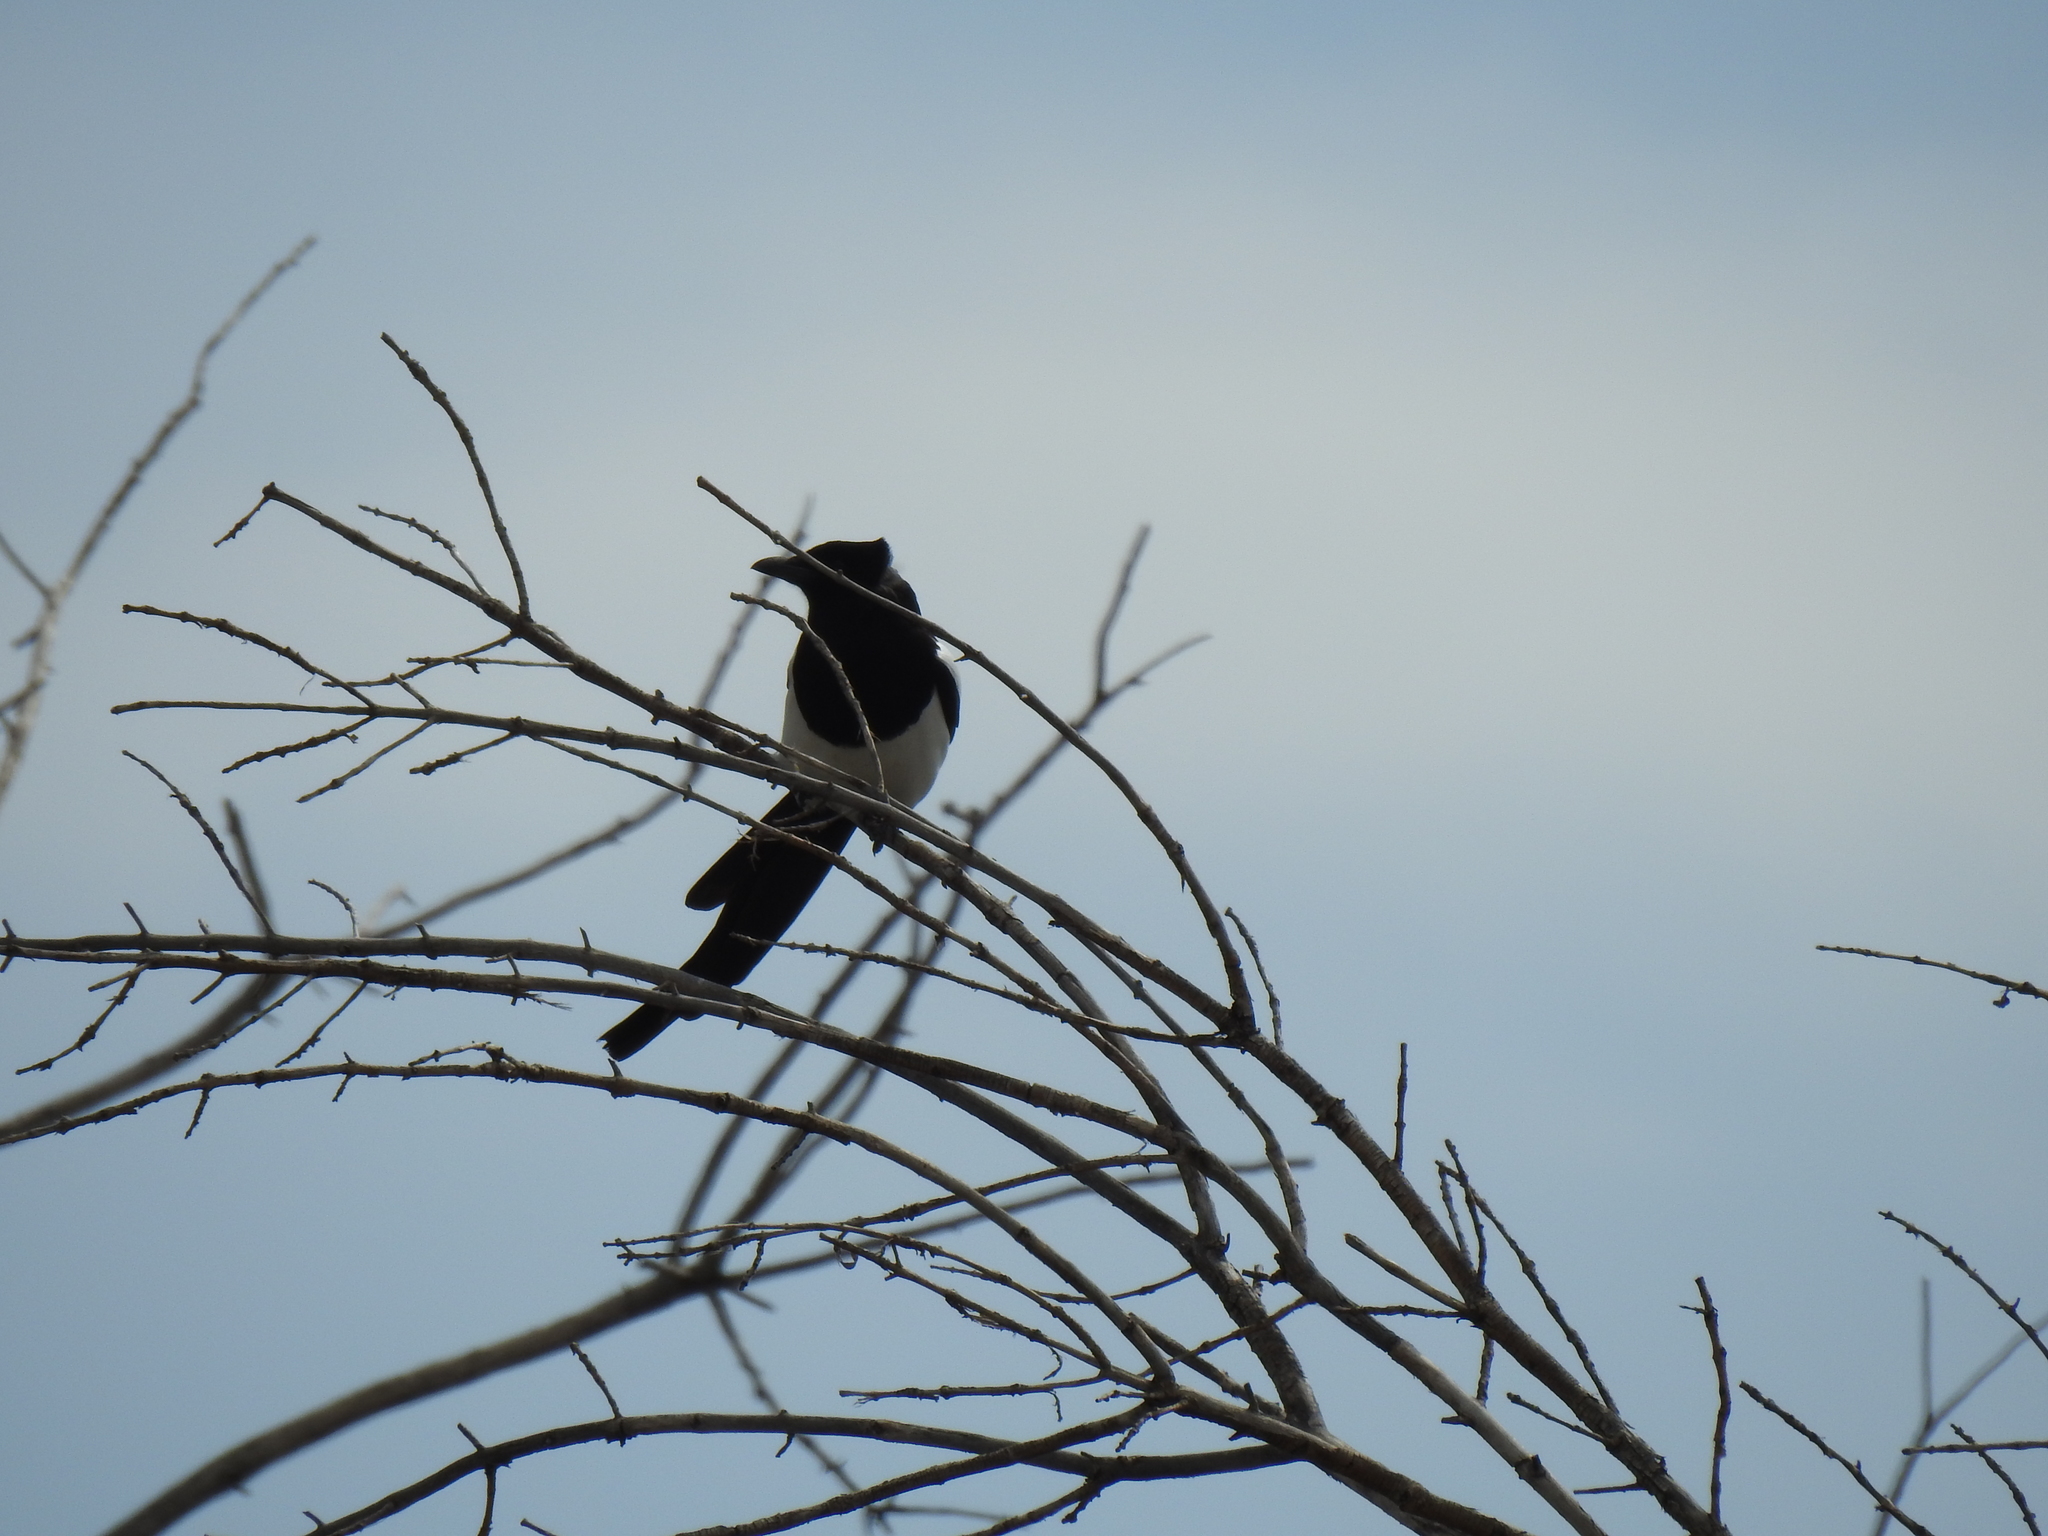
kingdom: Animalia
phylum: Chordata
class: Aves
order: Passeriformes
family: Corvidae
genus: Pica
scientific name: Pica hudsonia
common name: Black-billed magpie
